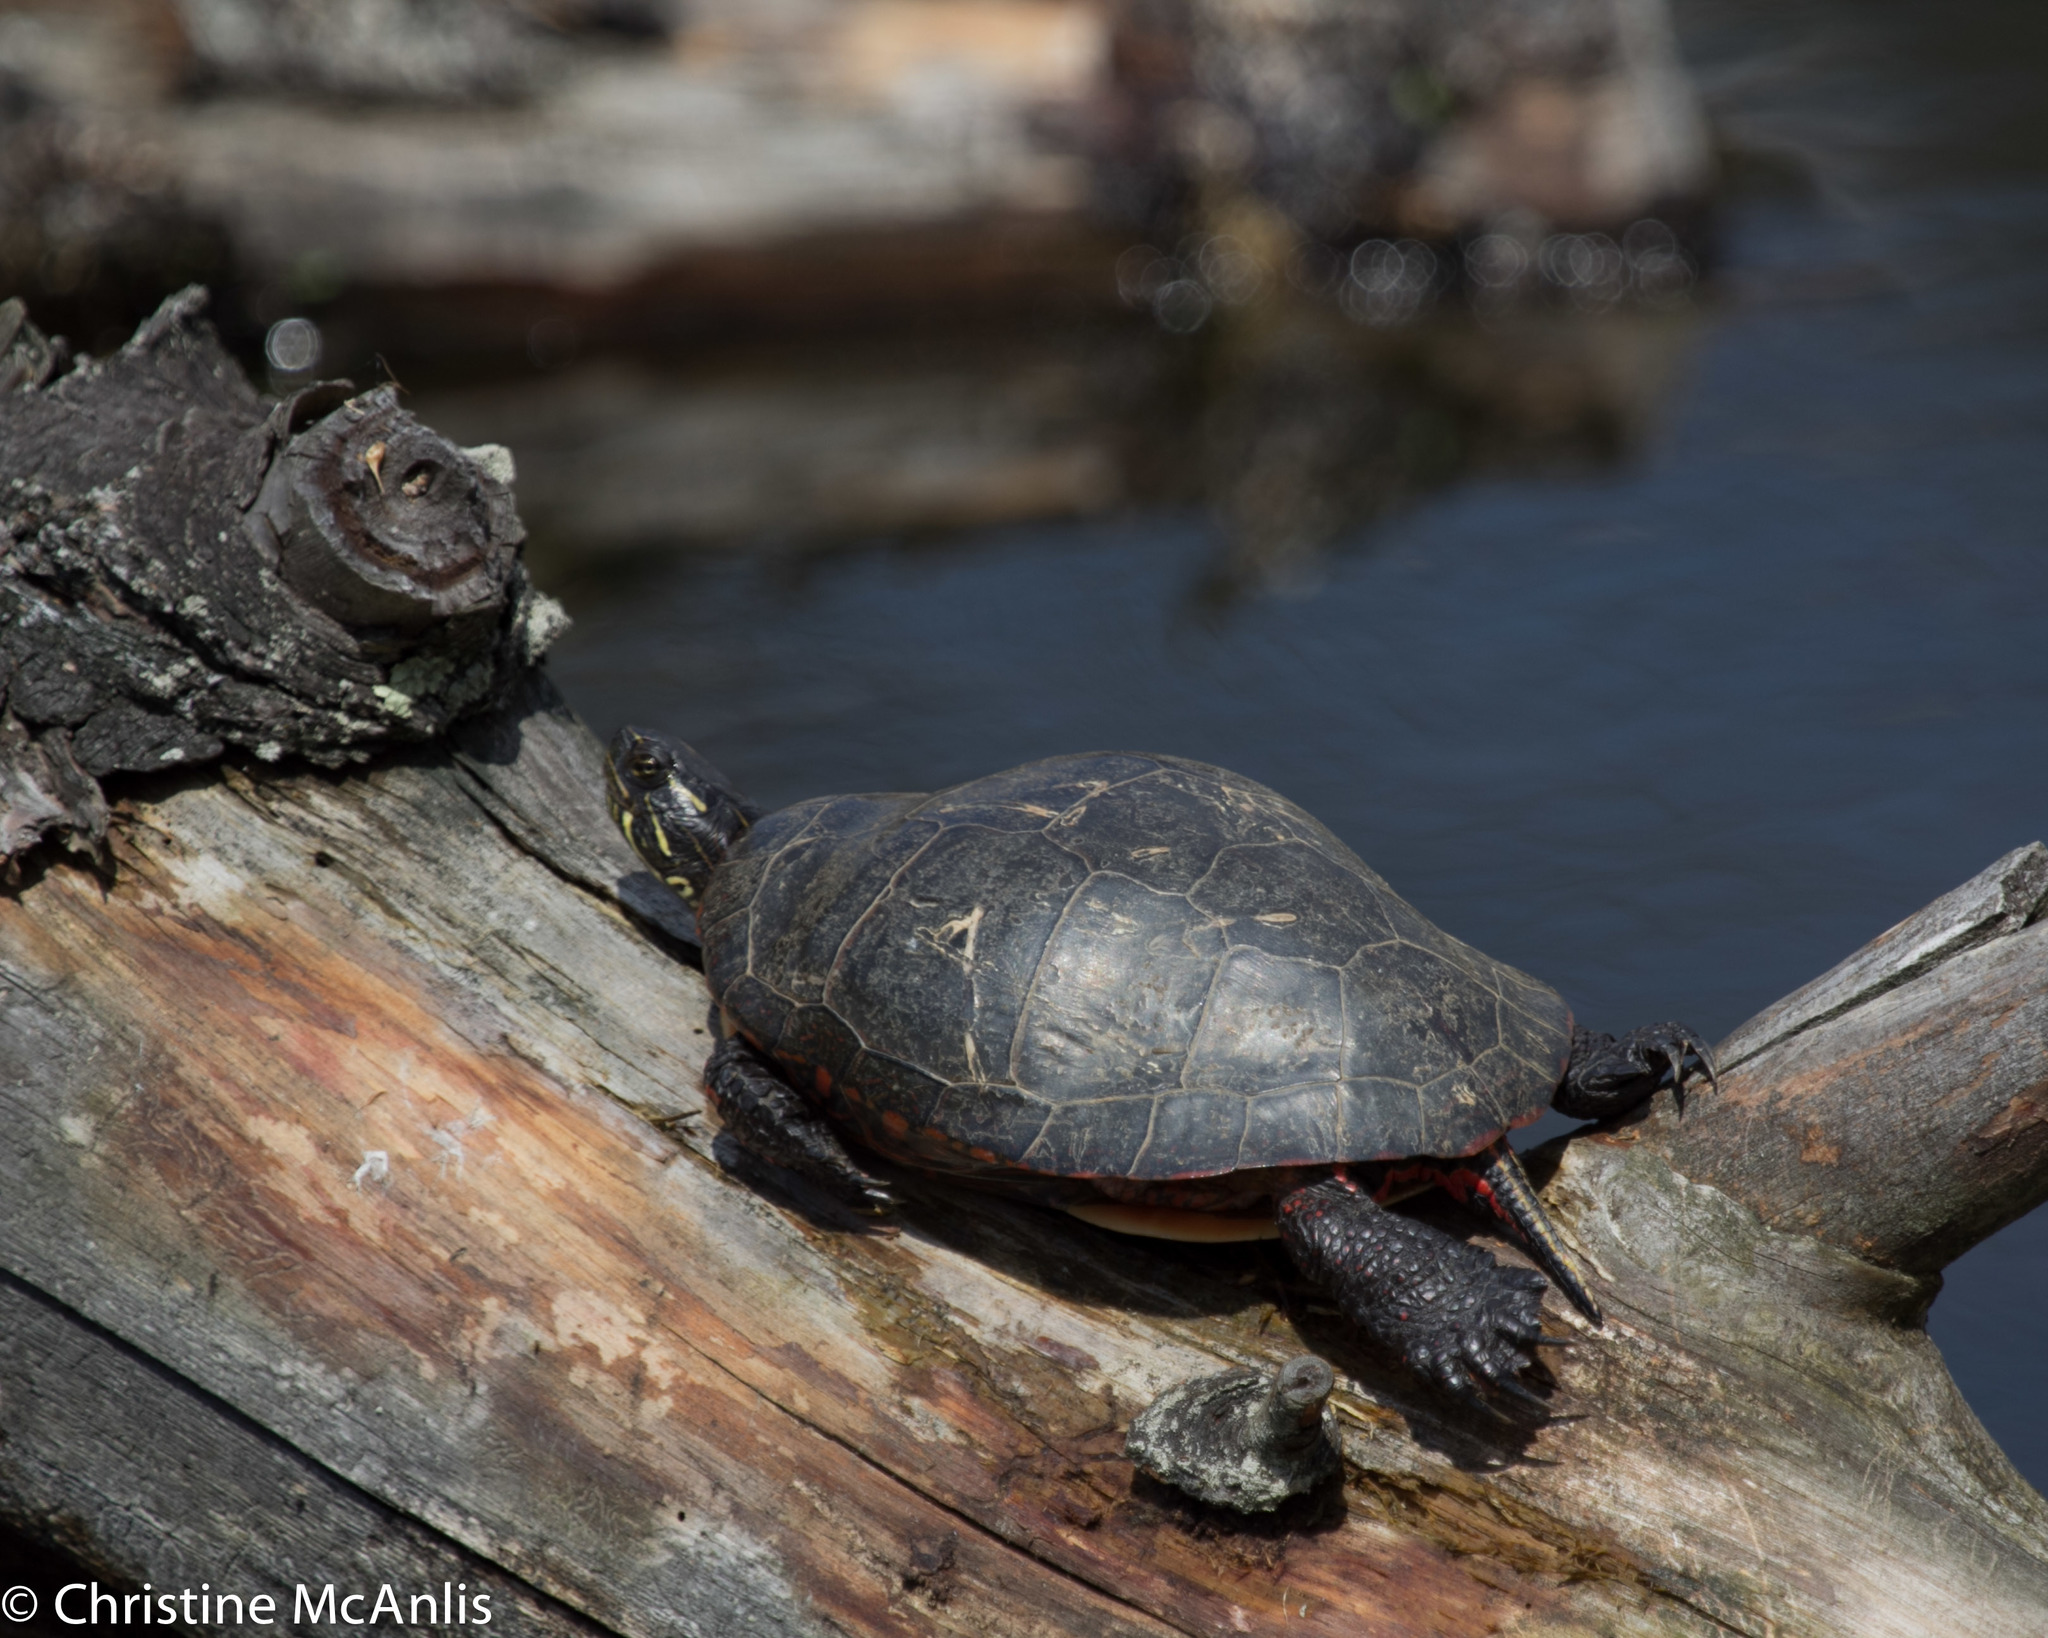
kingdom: Animalia
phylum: Chordata
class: Testudines
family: Emydidae
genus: Chrysemys
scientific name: Chrysemys picta
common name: Painted turtle
